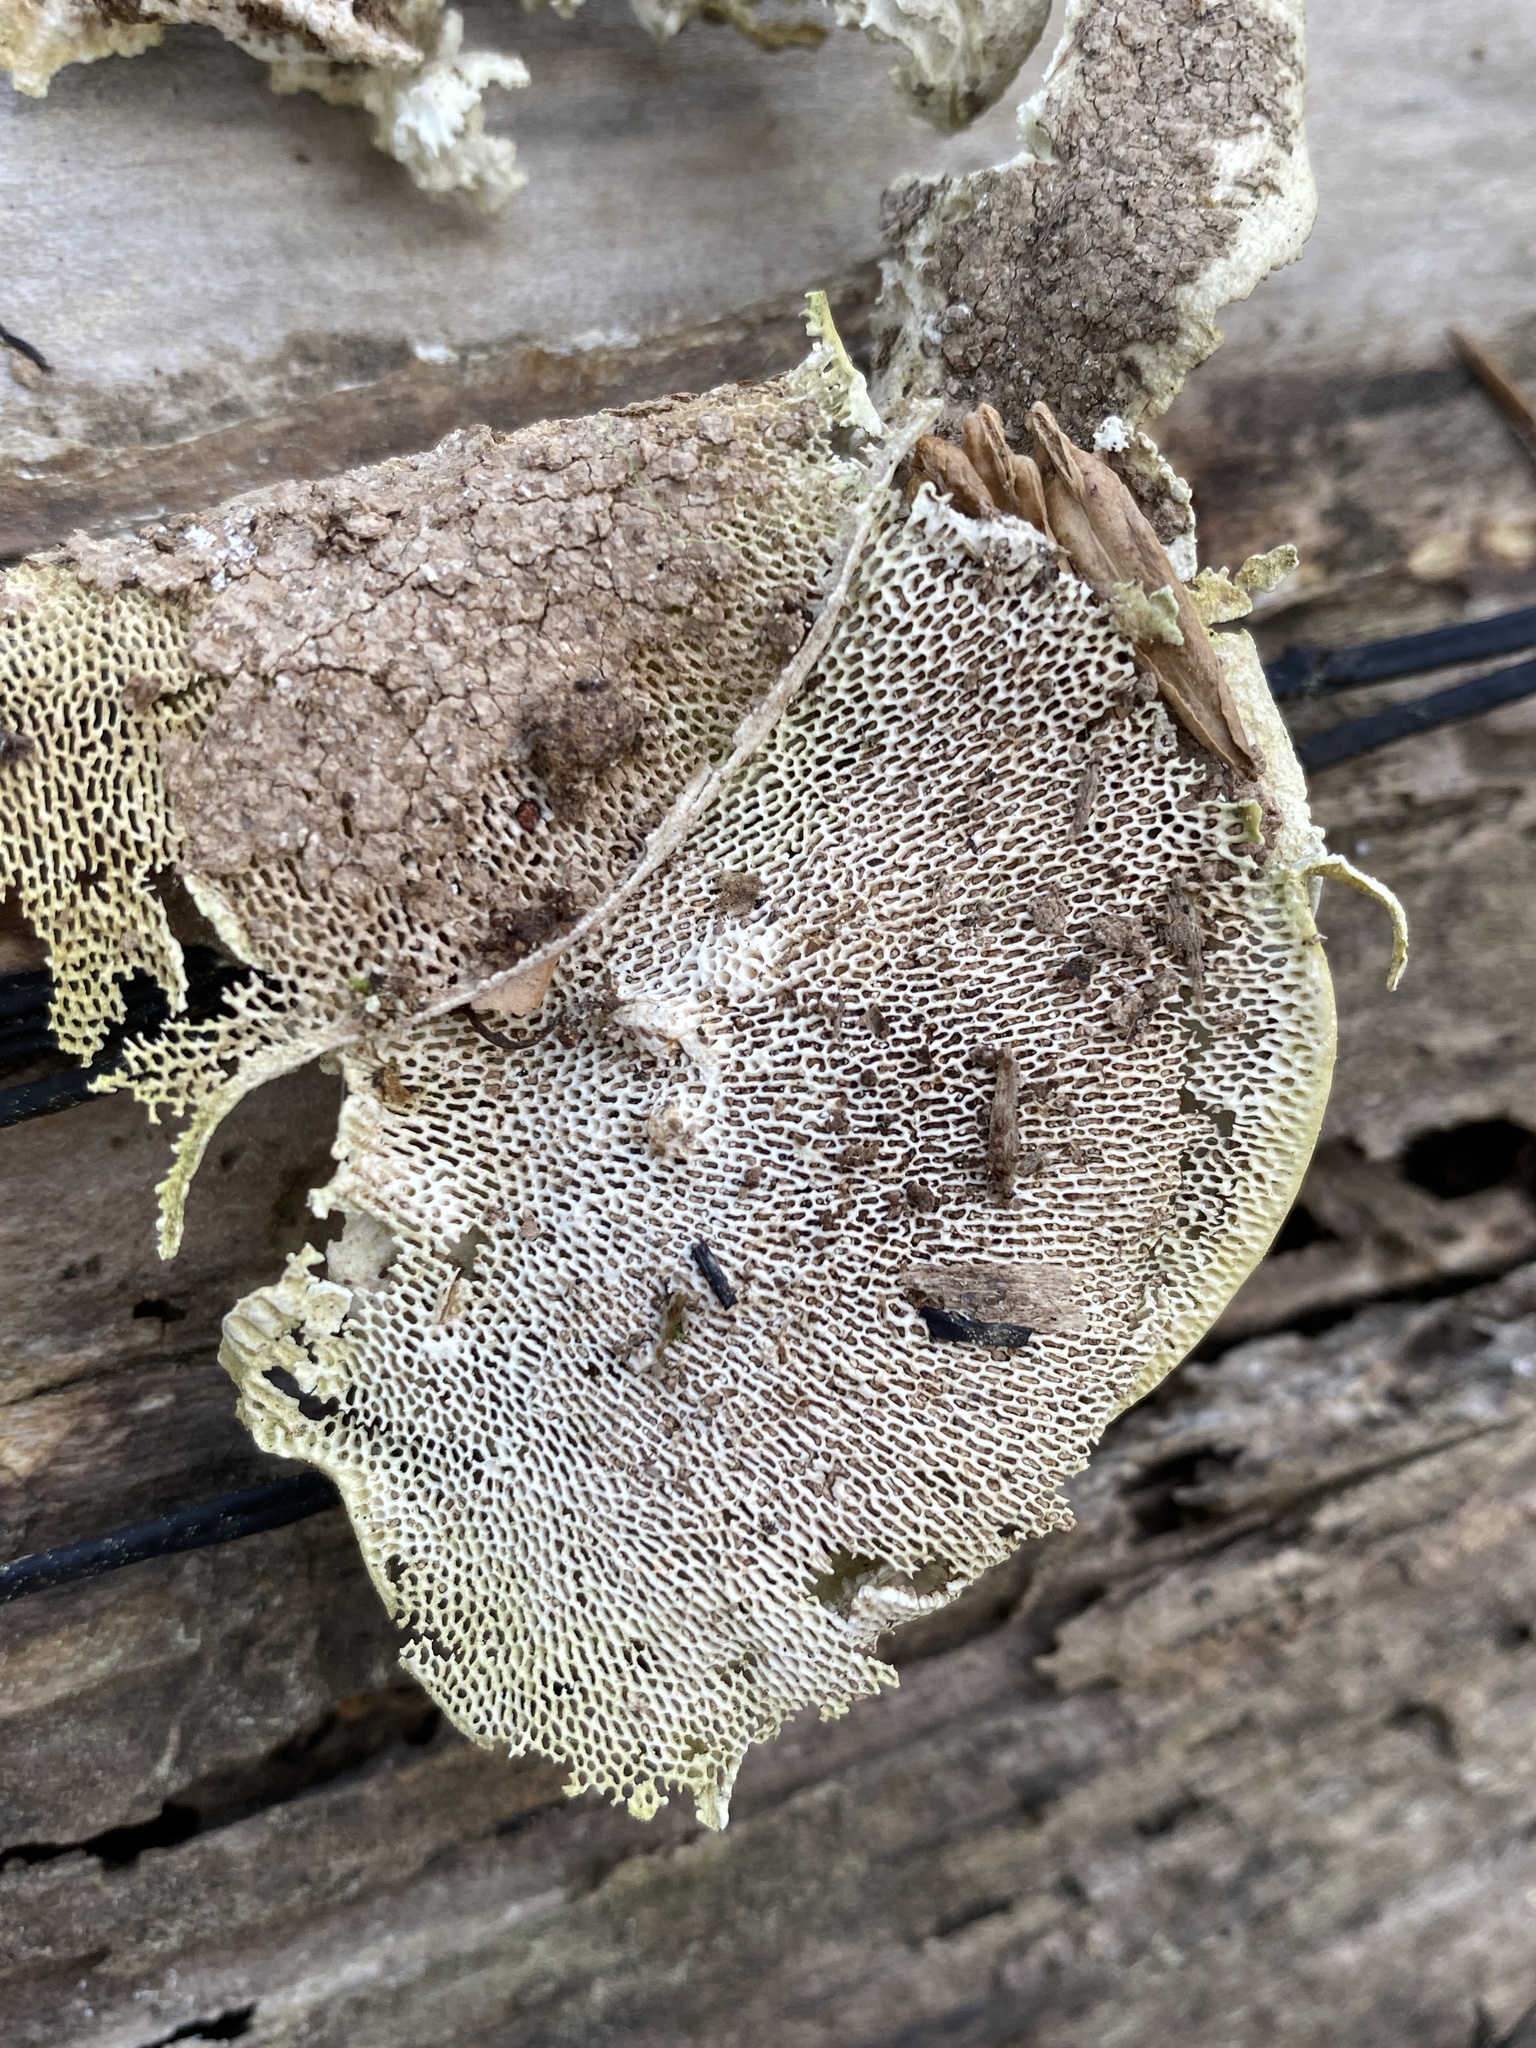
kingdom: Fungi
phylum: Basidiomycota
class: Agaricomycetes
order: Polyporales
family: Polyporaceae
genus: Trametes
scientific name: Trametes gibbosa
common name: Lumpy bracket
